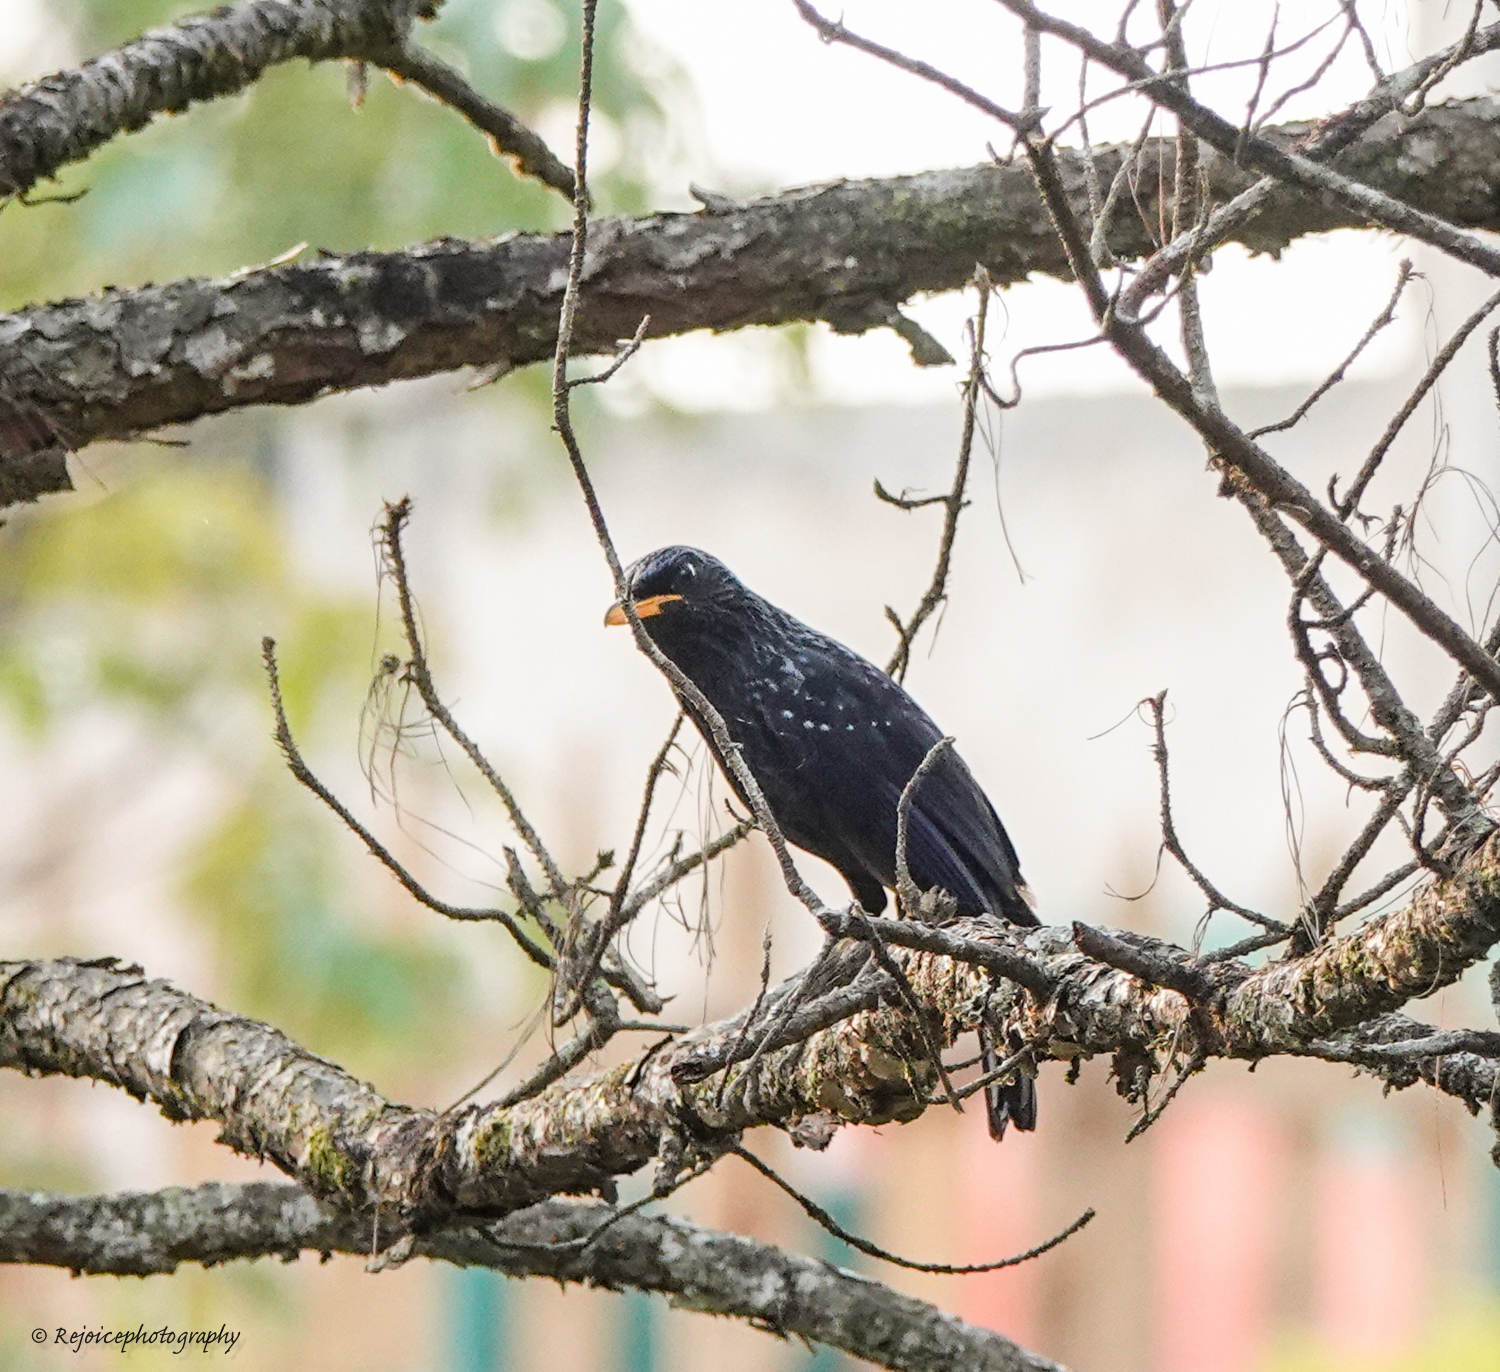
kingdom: Animalia
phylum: Chordata
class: Aves
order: Passeriformes
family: Muscicapidae
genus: Myophonus
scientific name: Myophonus caeruleus
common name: Blue whistling-thrush
